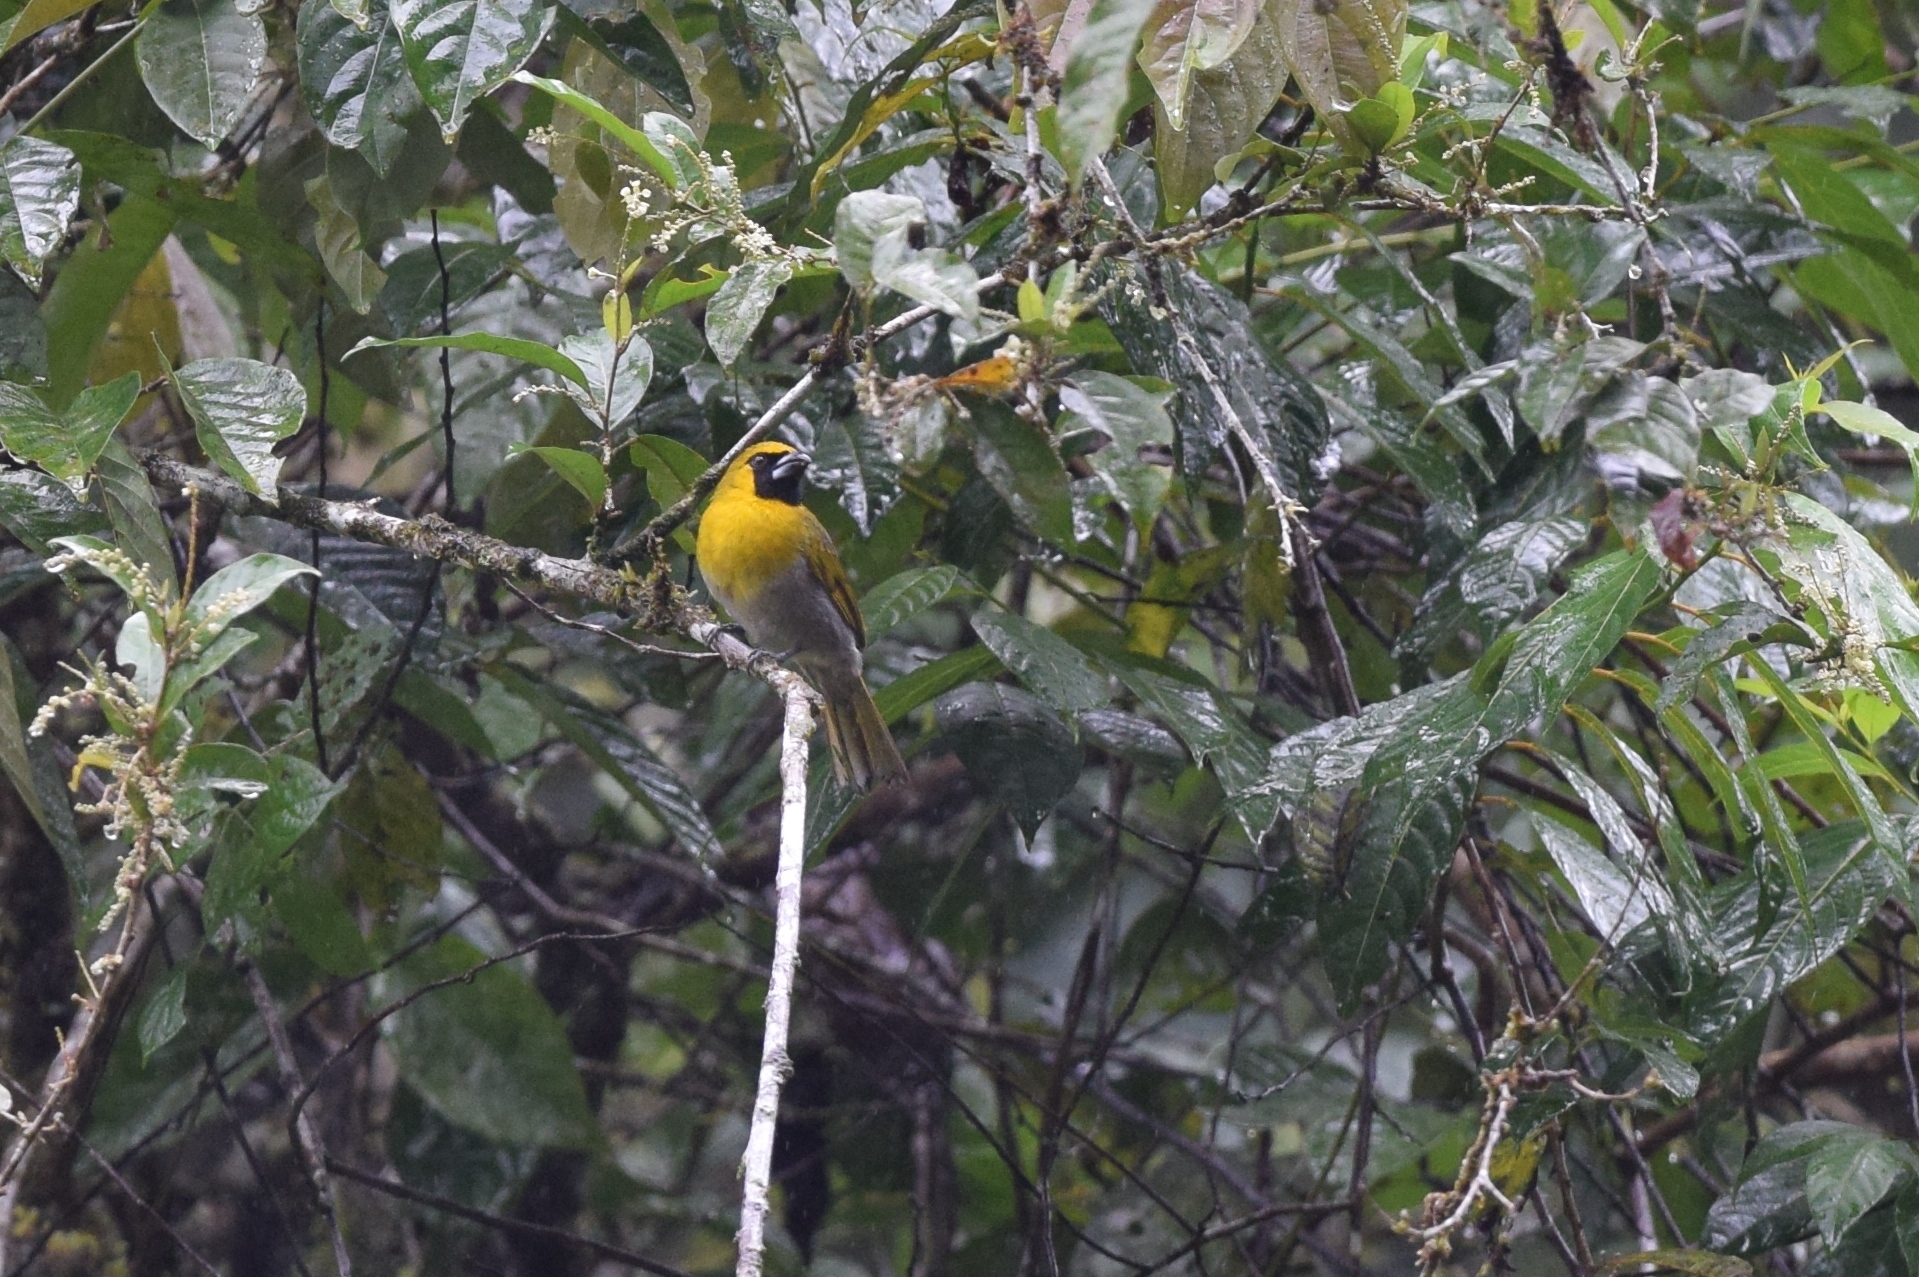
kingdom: Animalia
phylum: Chordata
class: Aves
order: Passeriformes
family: Cardinalidae
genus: Caryothraustes
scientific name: Caryothraustes poliogaster
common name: Black-faced grosbeak
